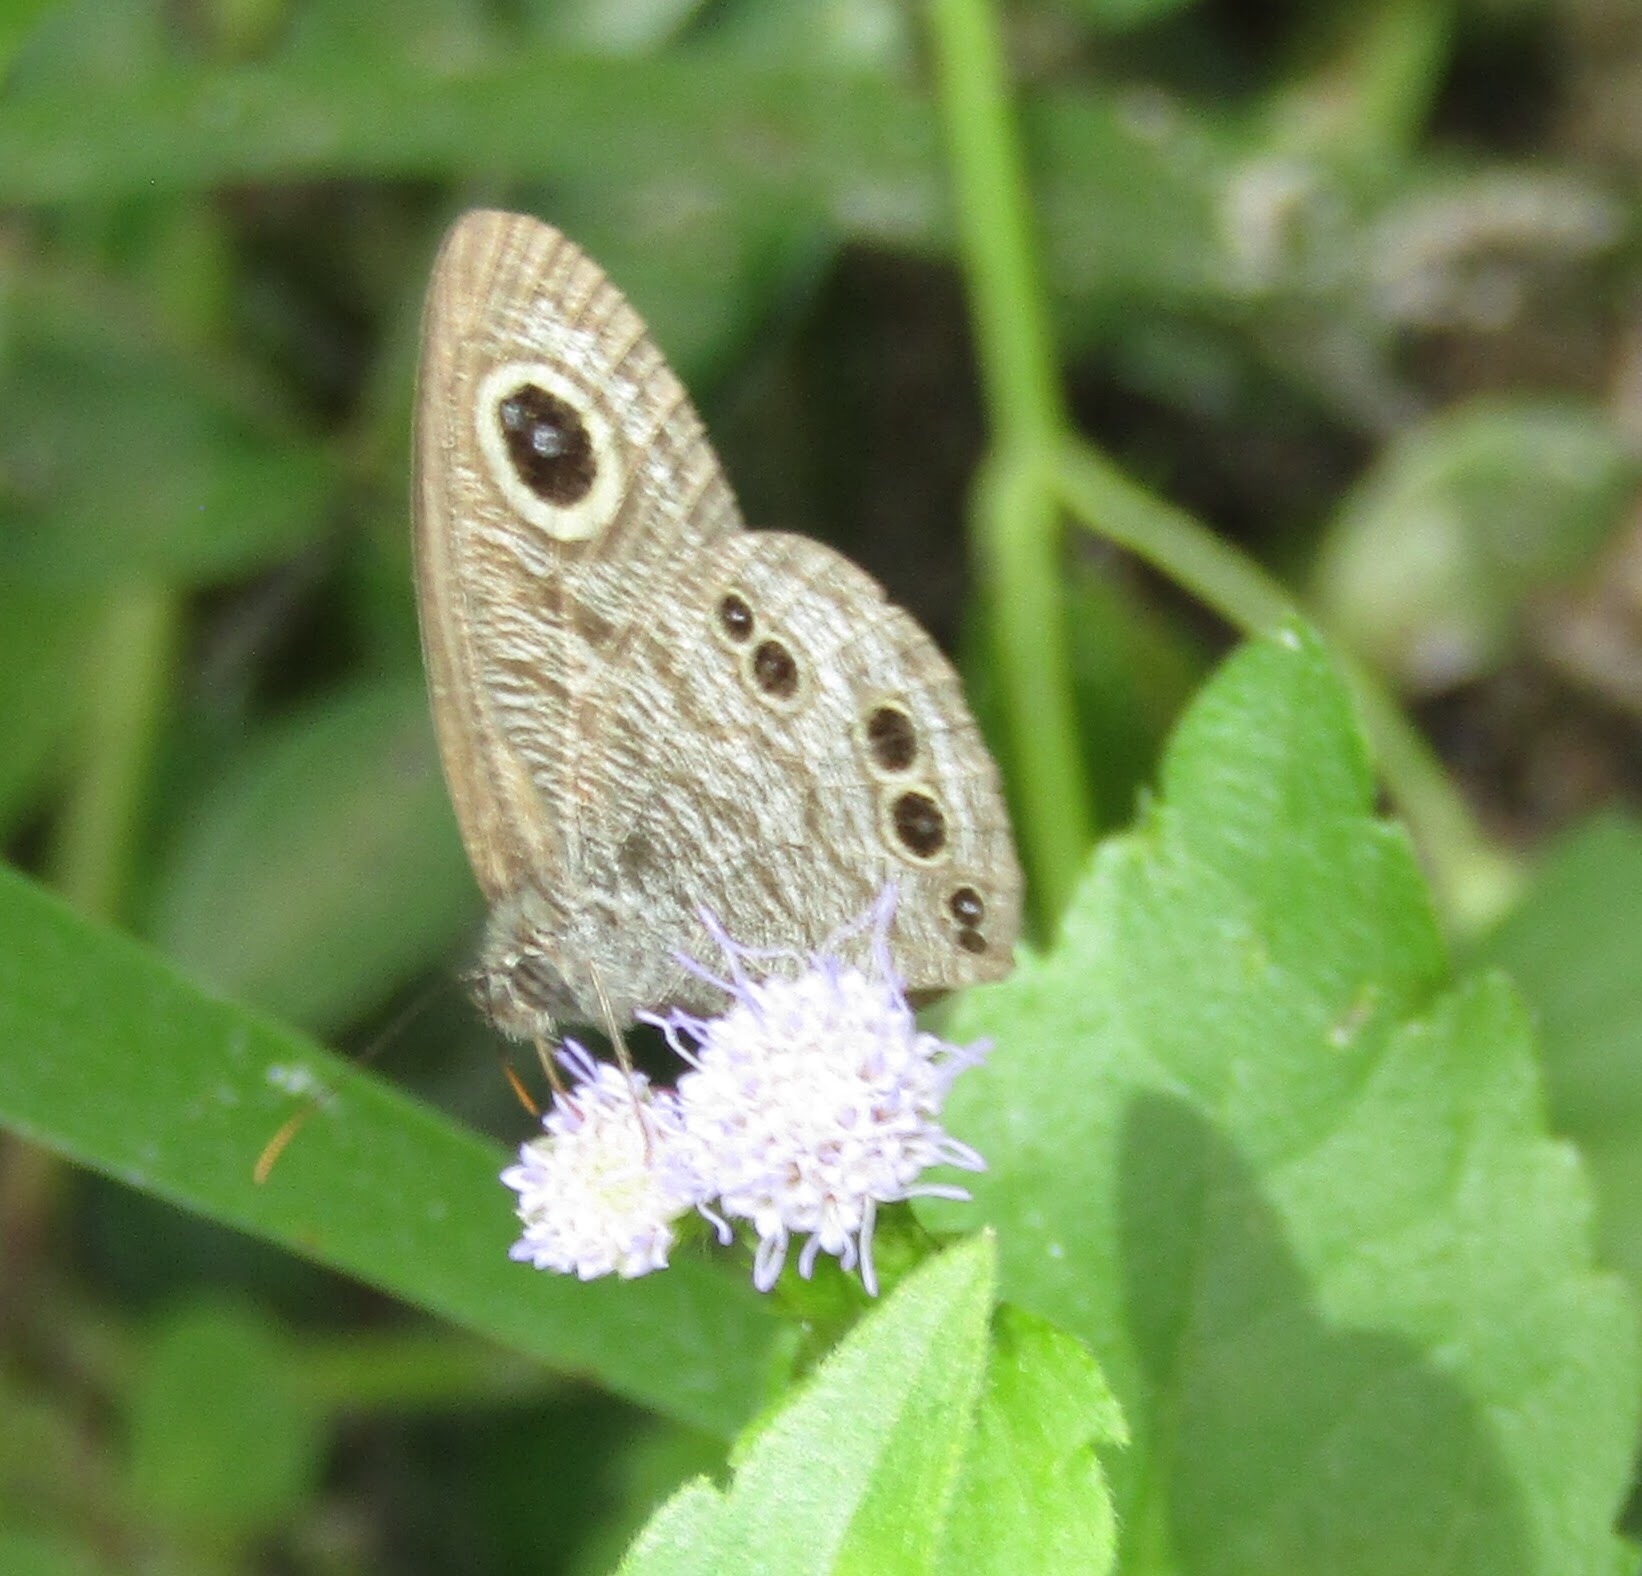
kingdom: Animalia
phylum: Arthropoda
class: Insecta
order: Lepidoptera
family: Nymphalidae
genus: Ypthima
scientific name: Ypthima baldus
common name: Common five-ring
